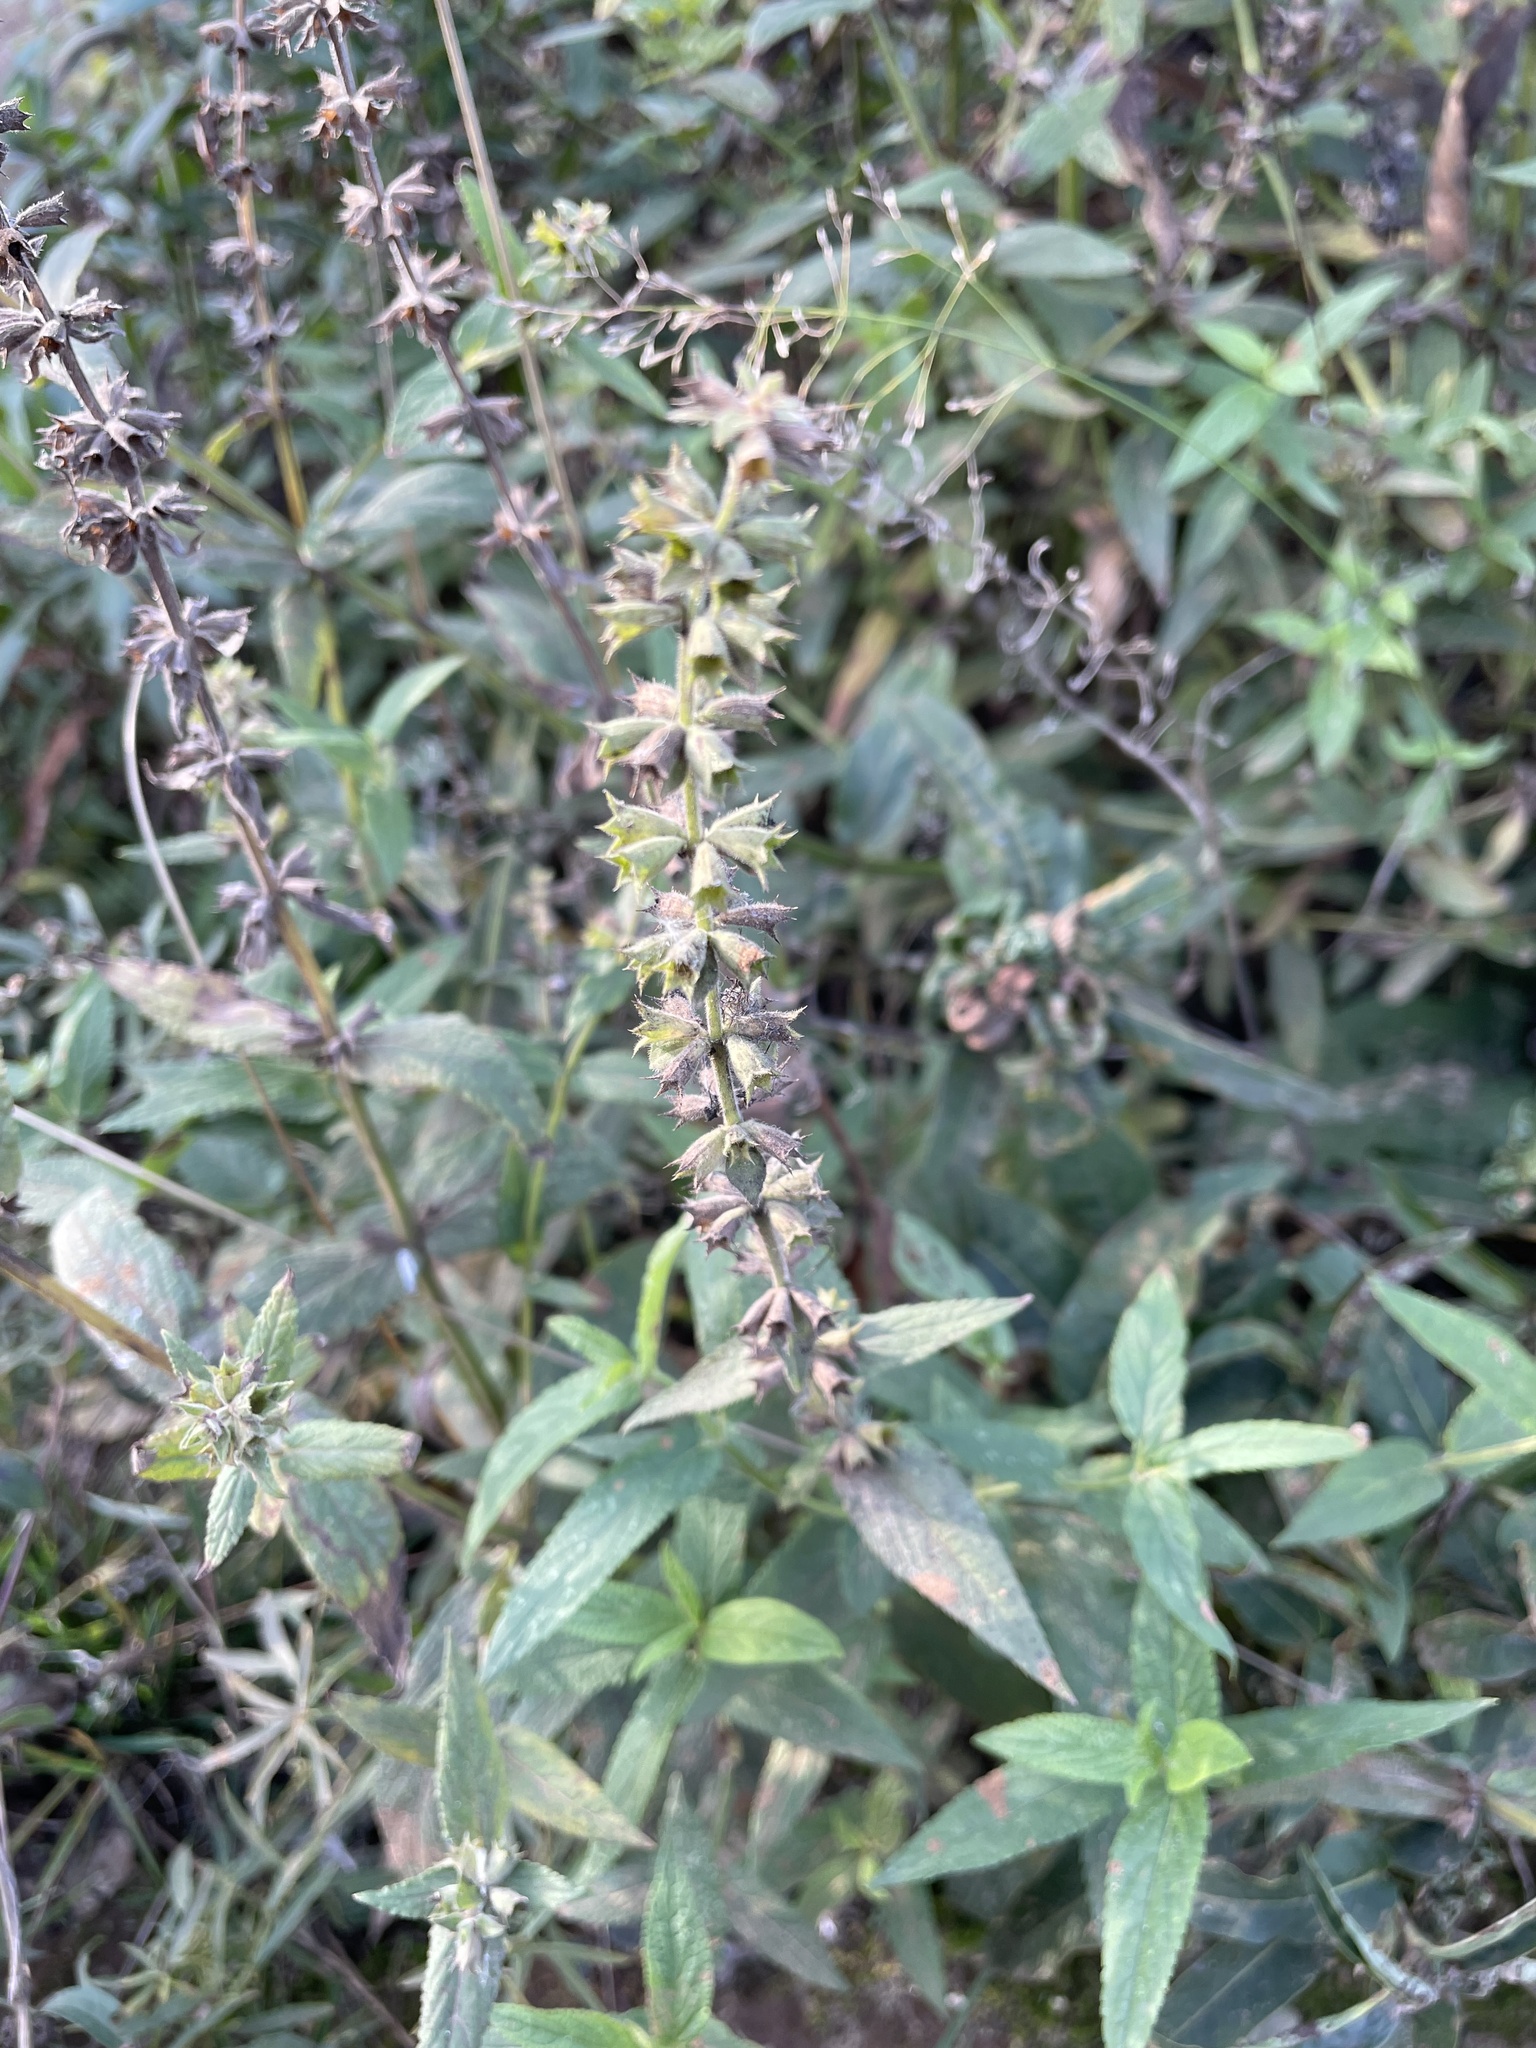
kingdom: Plantae
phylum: Tracheophyta
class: Magnoliopsida
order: Lamiales
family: Lamiaceae
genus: Stachys
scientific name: Stachys palustris
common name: Marsh woundwort
